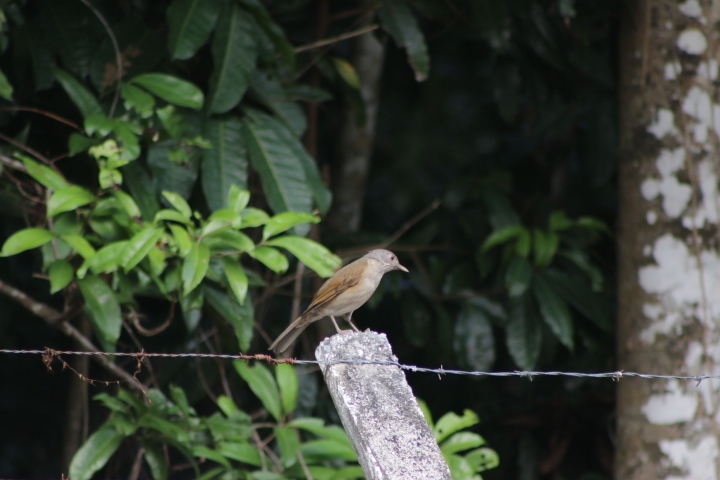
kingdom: Animalia
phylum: Chordata
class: Aves
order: Passeriformes
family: Turdidae
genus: Turdus
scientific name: Turdus leucomelas
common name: Pale-breasted thrush
